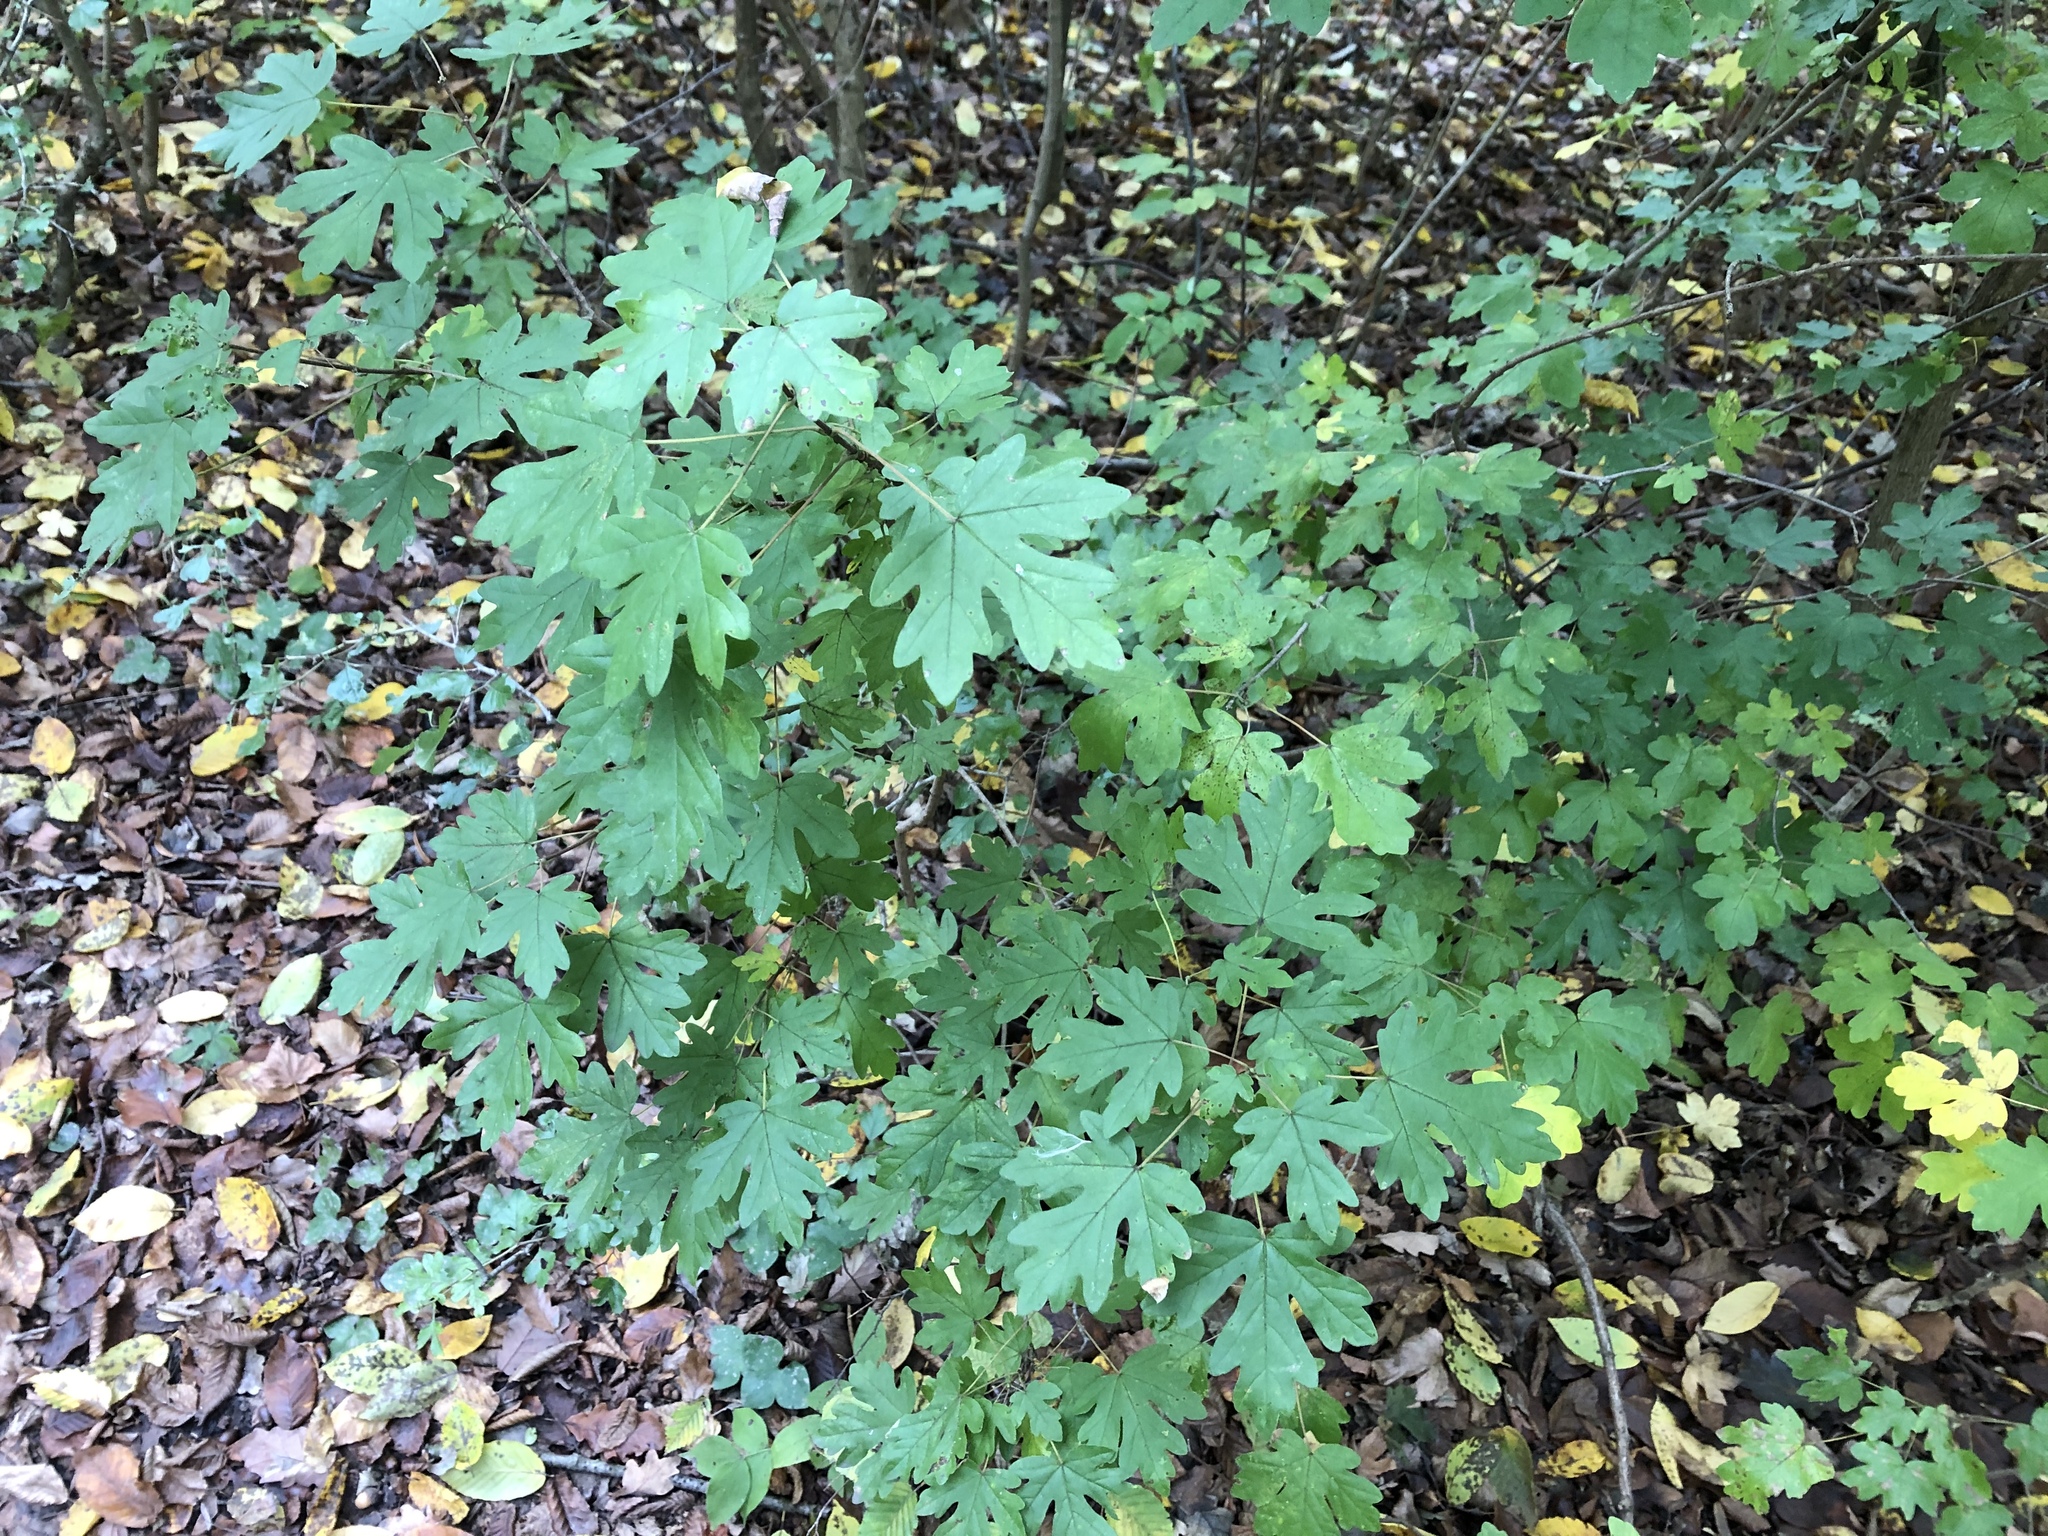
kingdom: Plantae
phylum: Tracheophyta
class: Magnoliopsida
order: Sapindales
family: Sapindaceae
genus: Acer
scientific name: Acer campestre
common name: Field maple
